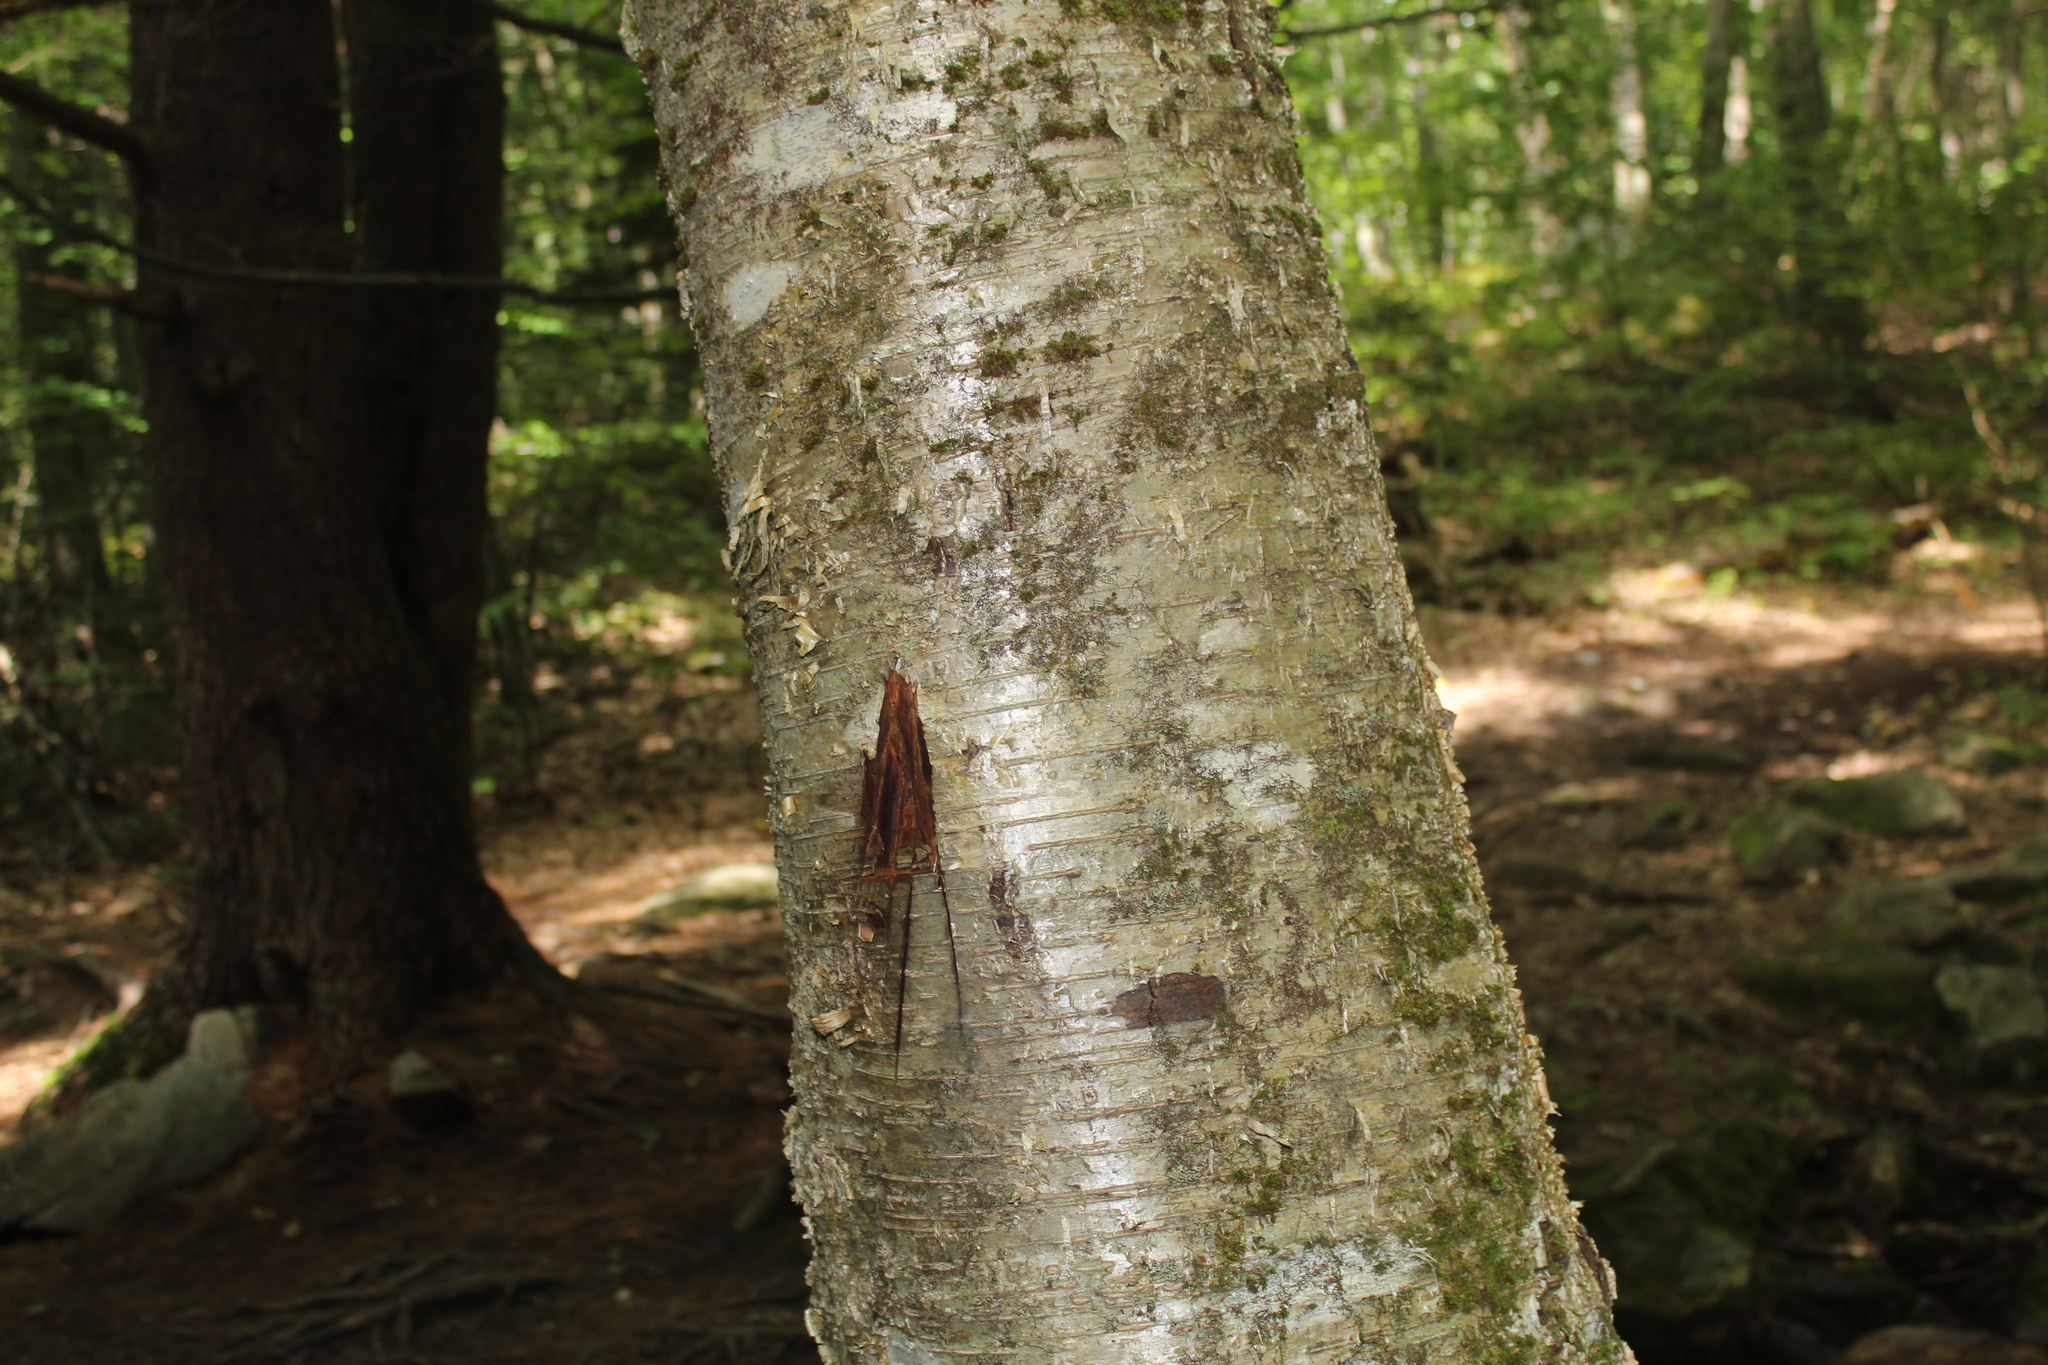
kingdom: Plantae
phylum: Tracheophyta
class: Magnoliopsida
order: Fagales
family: Betulaceae
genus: Betula
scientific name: Betula alleghaniensis
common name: Yellow birch
